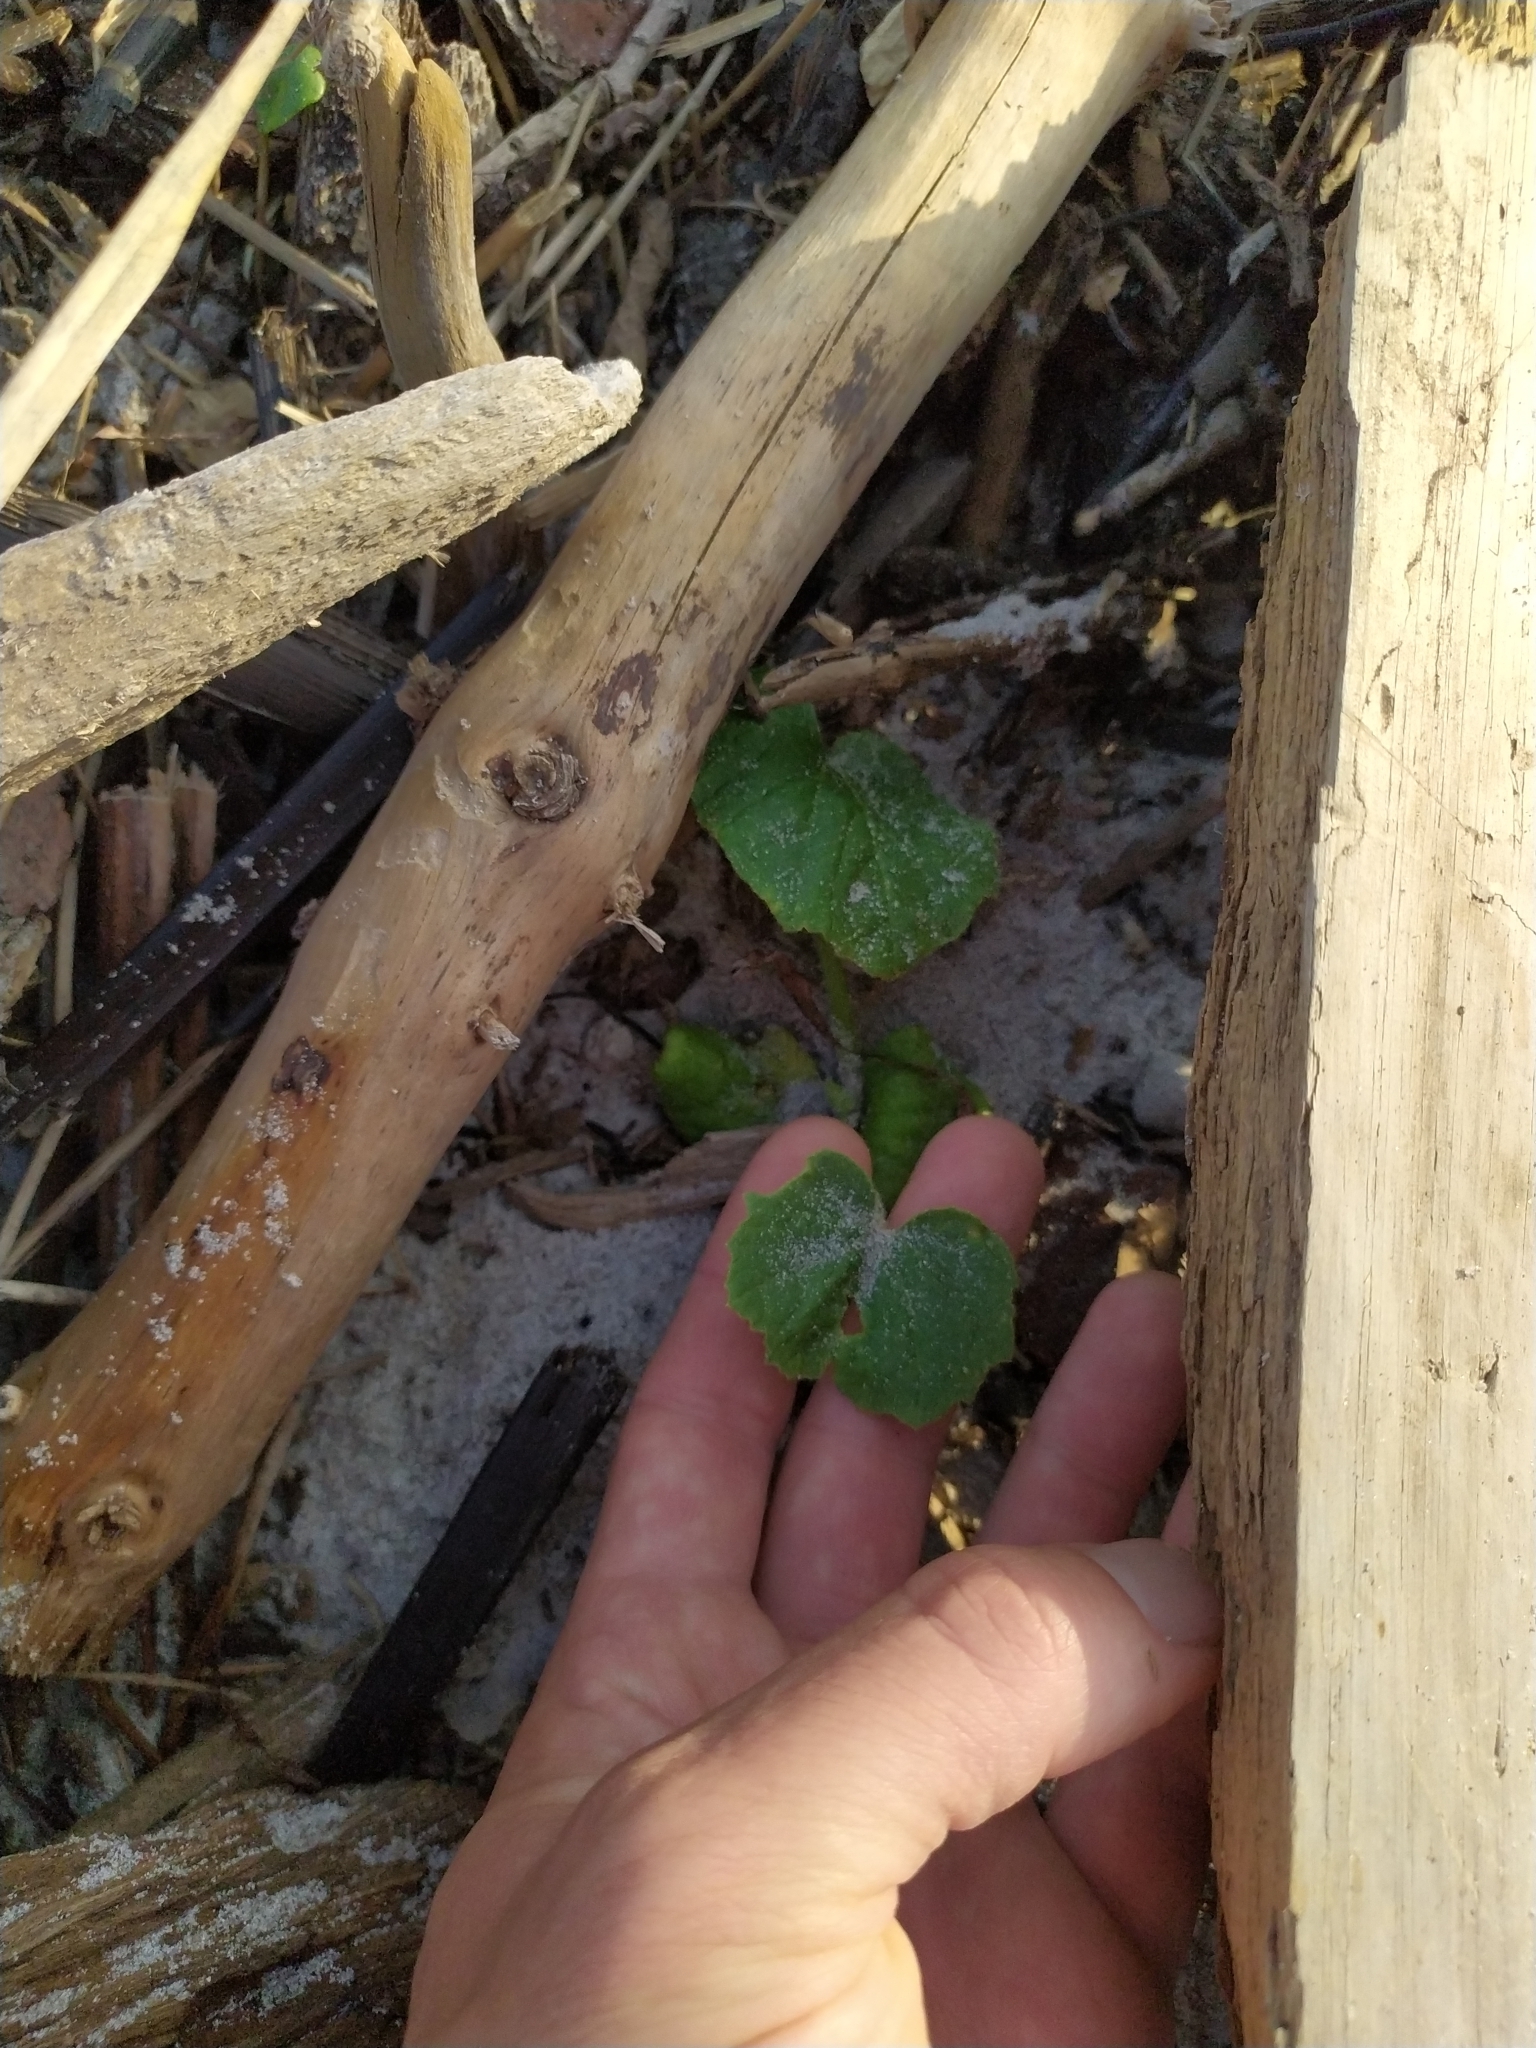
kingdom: Plantae
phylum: Tracheophyta
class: Magnoliopsida
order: Cucurbitales
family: Cucurbitaceae
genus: Sicyos
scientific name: Sicyos mawhai
